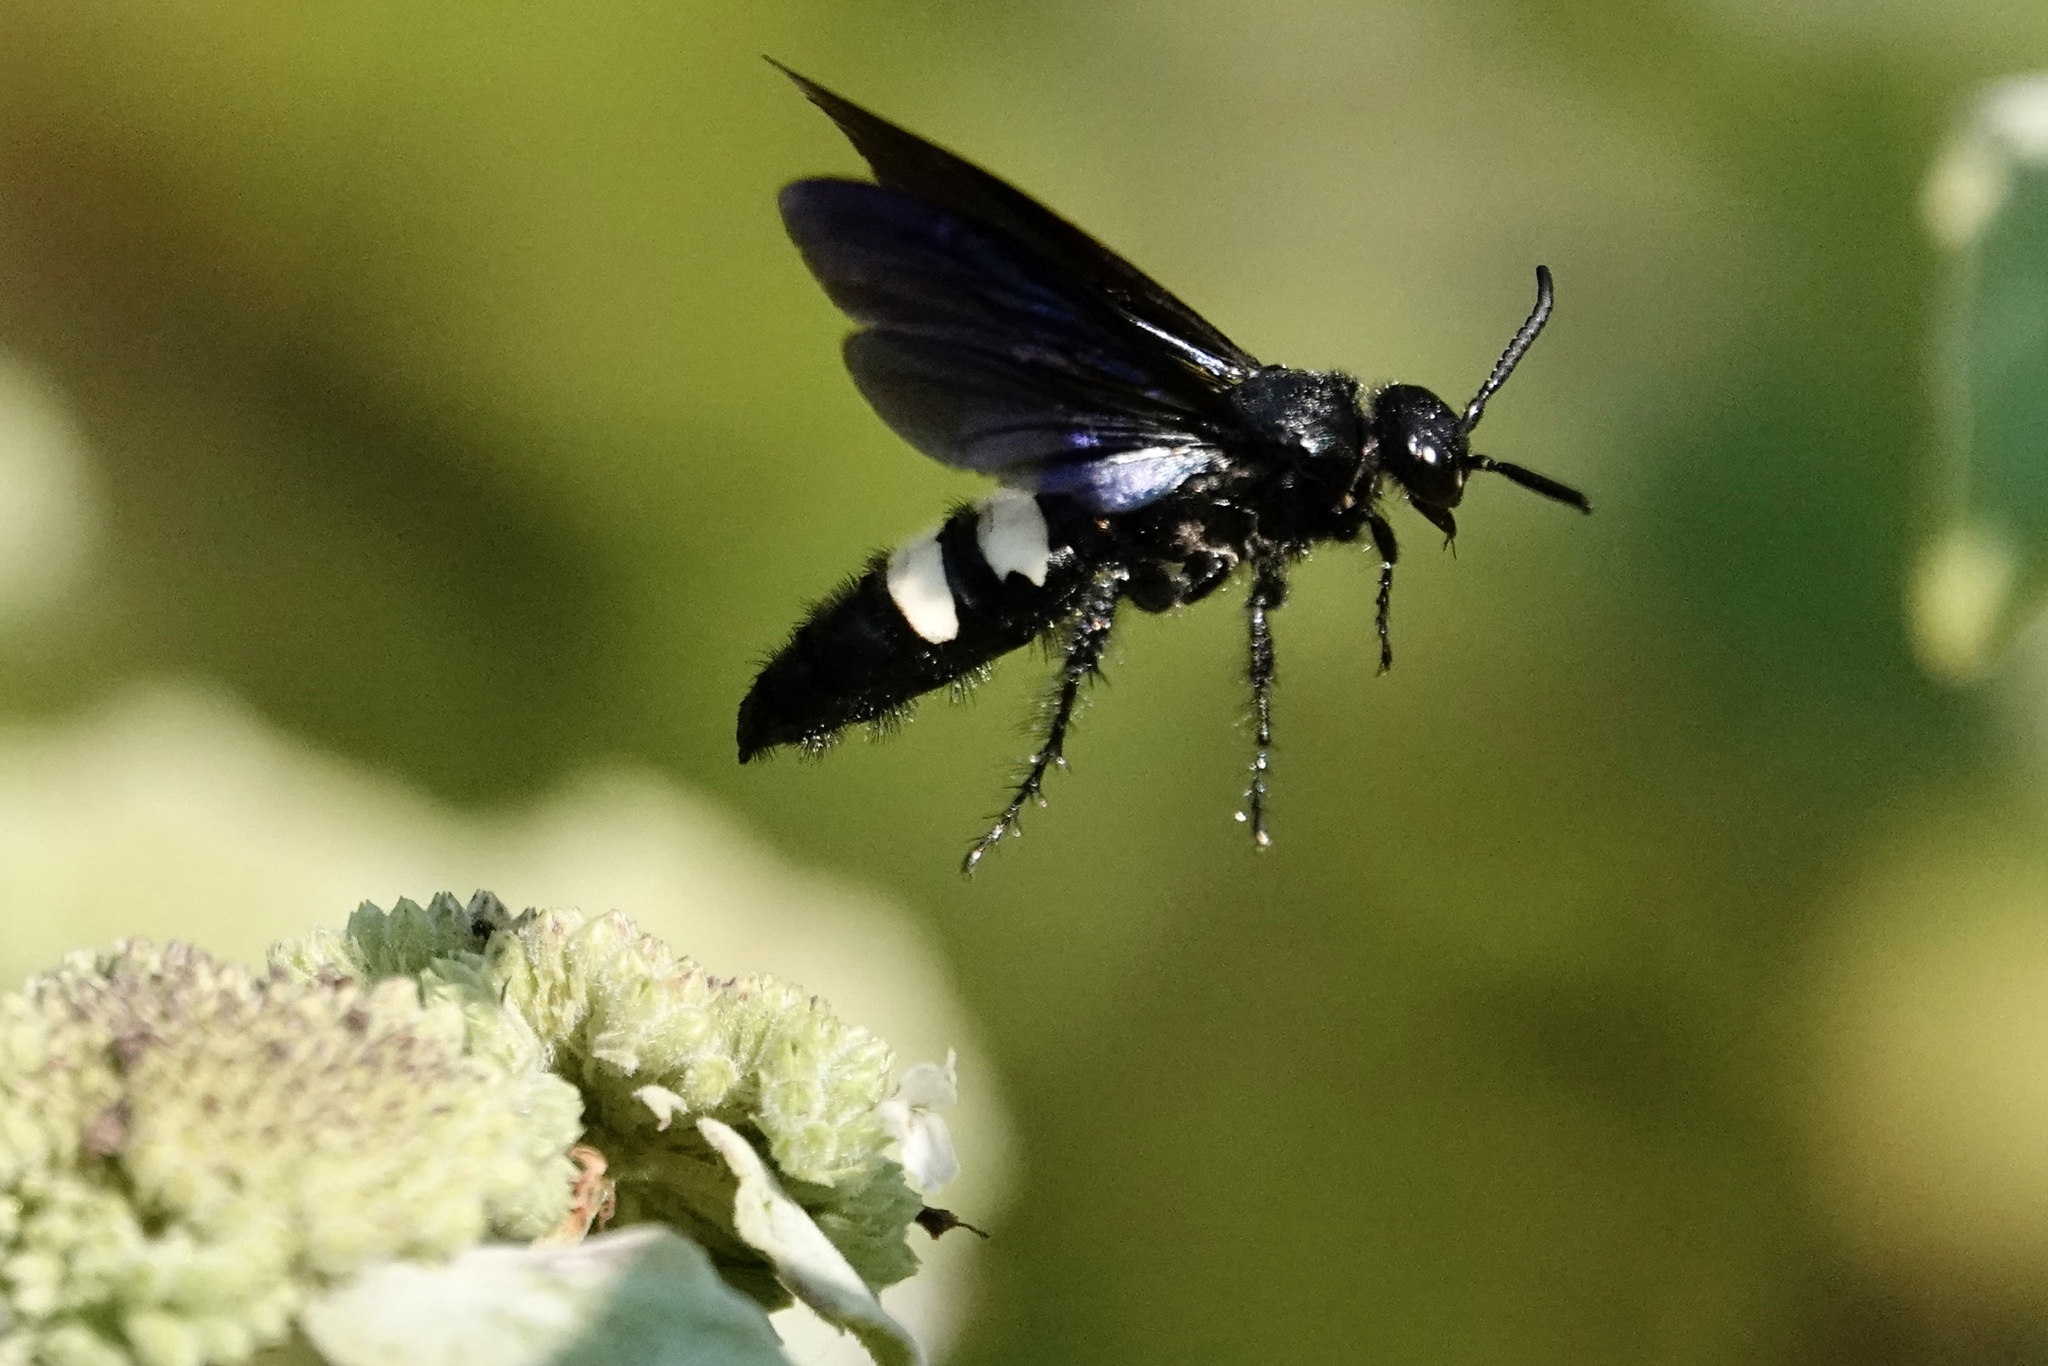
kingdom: Animalia
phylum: Arthropoda
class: Insecta
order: Hymenoptera
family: Scoliidae
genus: Scolia
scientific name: Scolia bicincta
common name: Double-banded scoliid wasp
